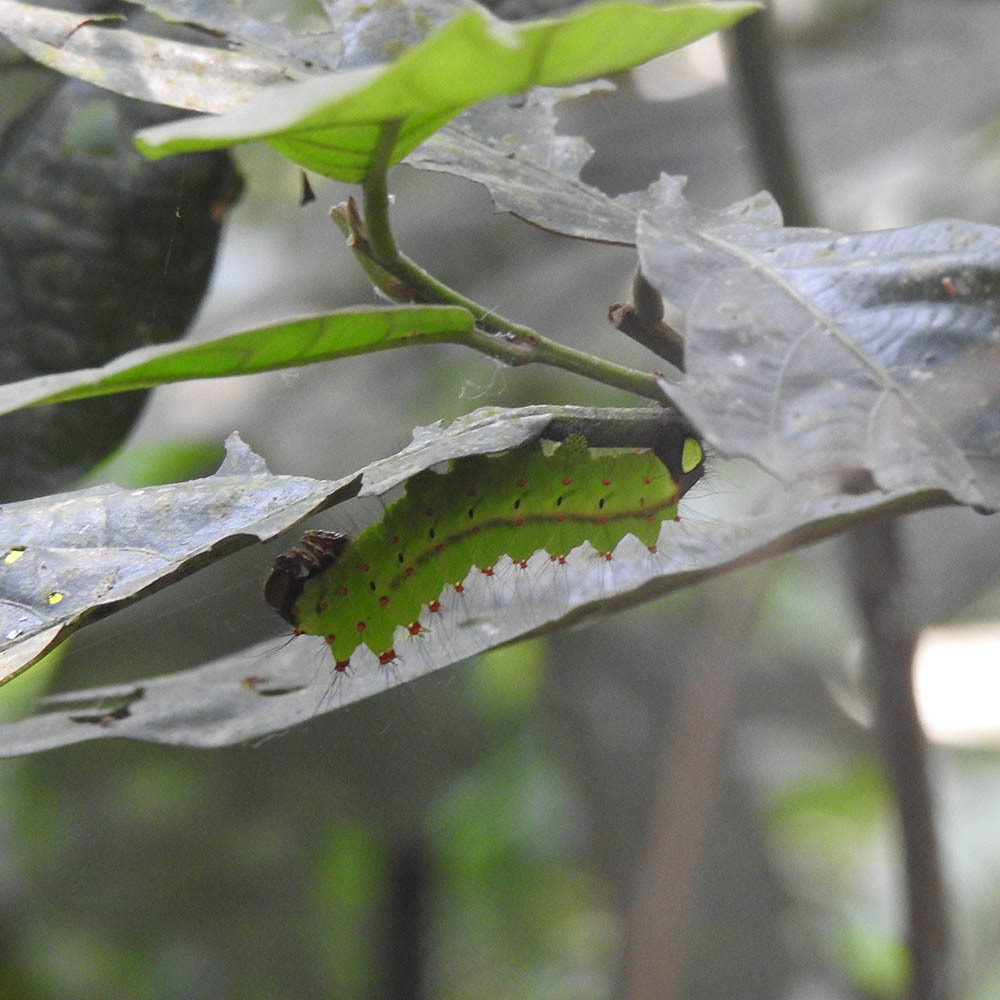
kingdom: Animalia
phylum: Arthropoda
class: Insecta
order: Lepidoptera
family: Saturniidae
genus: Actias
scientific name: Actias selene
